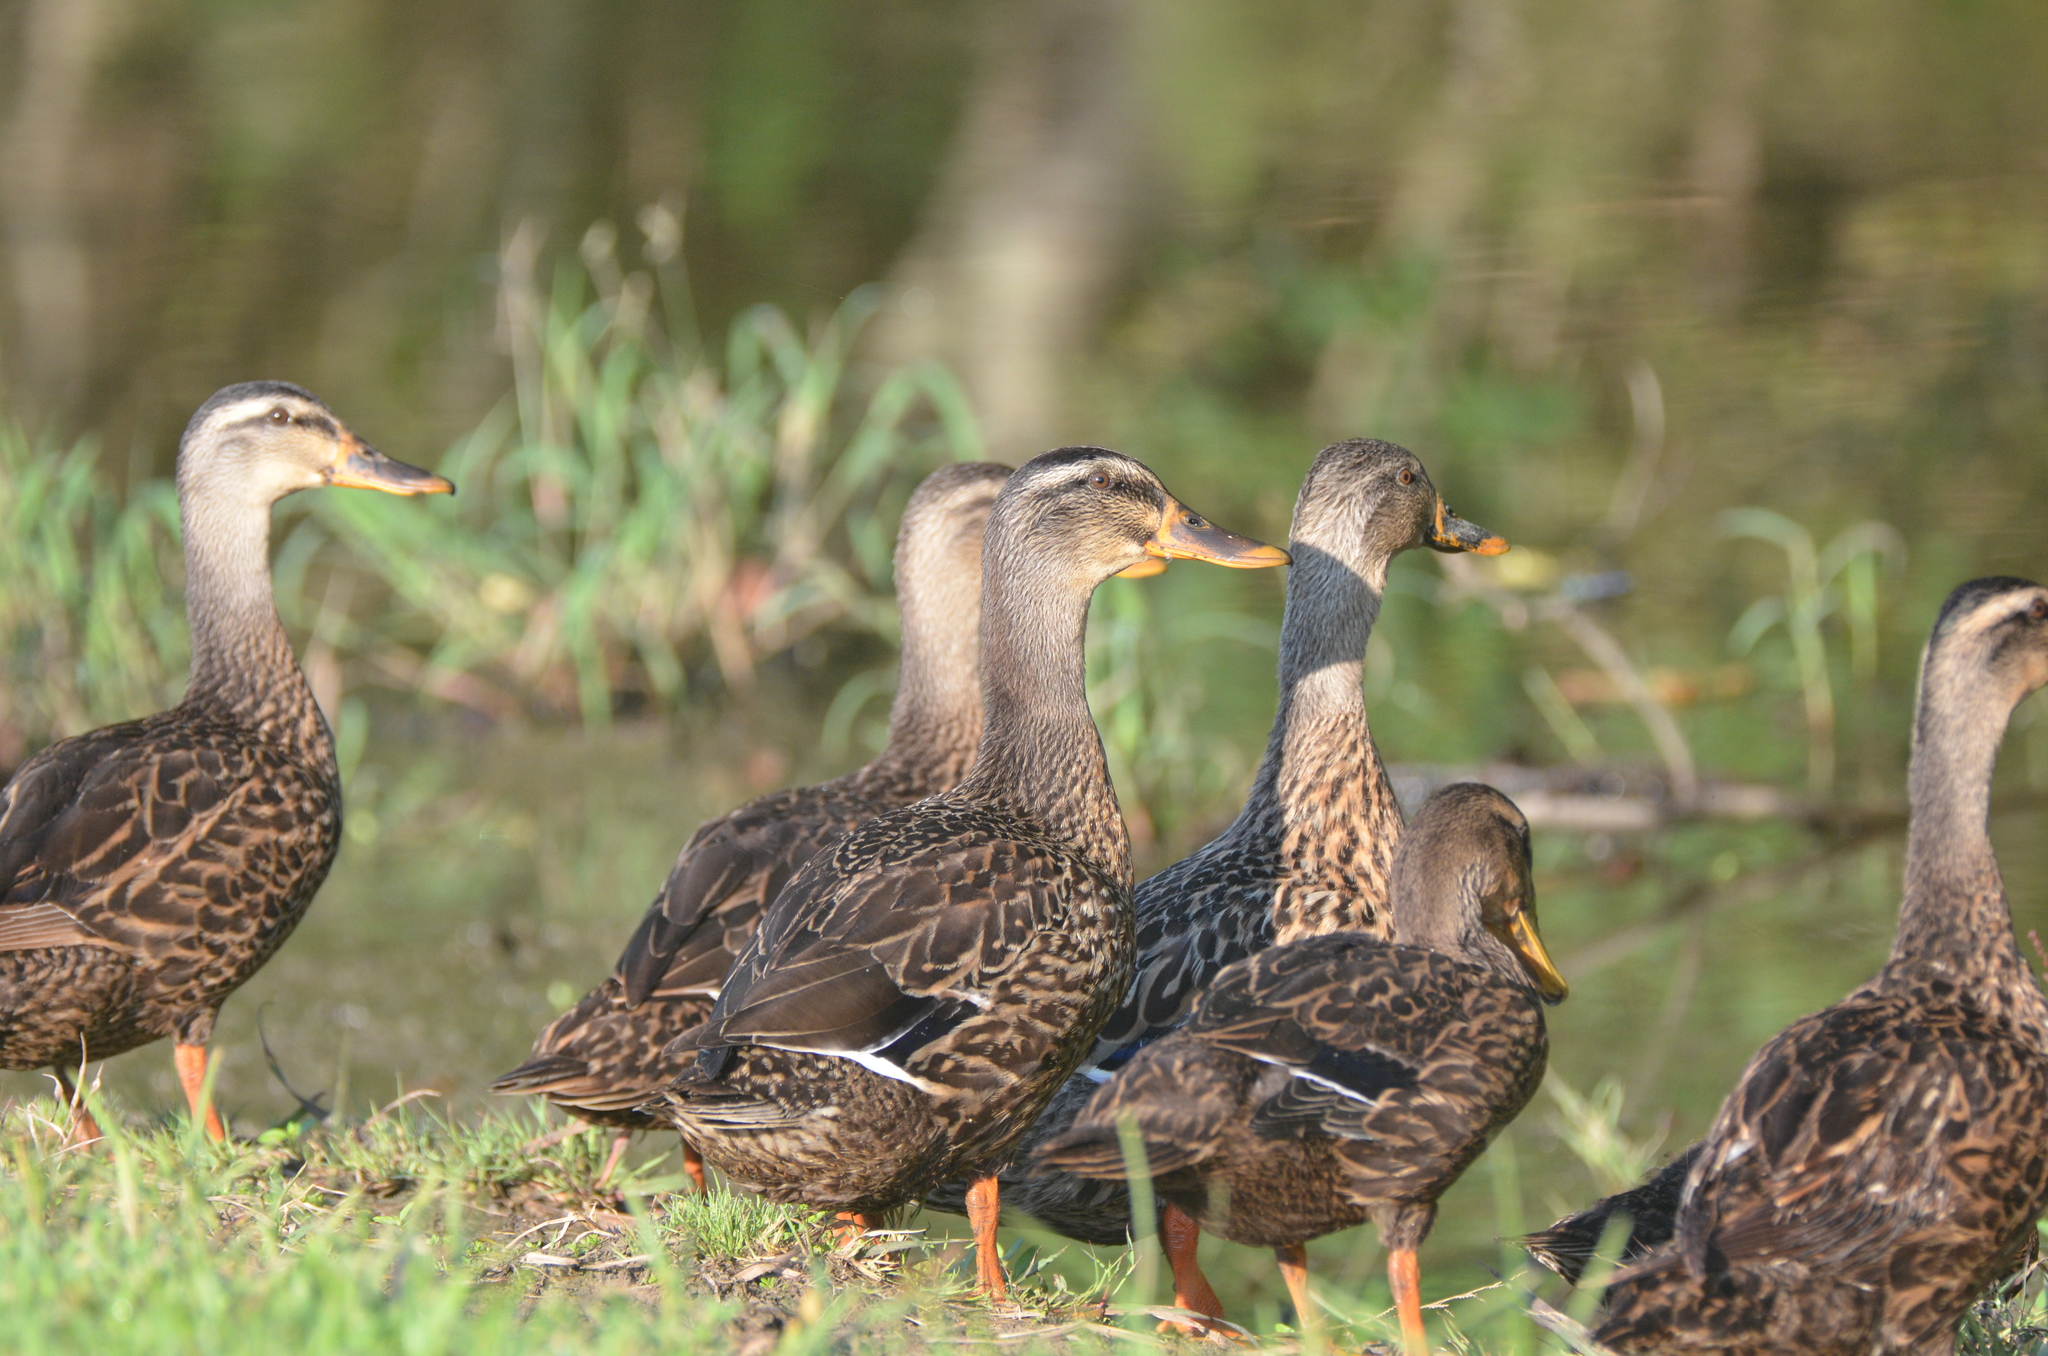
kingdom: Animalia
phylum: Chordata
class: Aves
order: Anseriformes
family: Anatidae
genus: Anas
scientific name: Anas platyrhynchos
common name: Mallard
